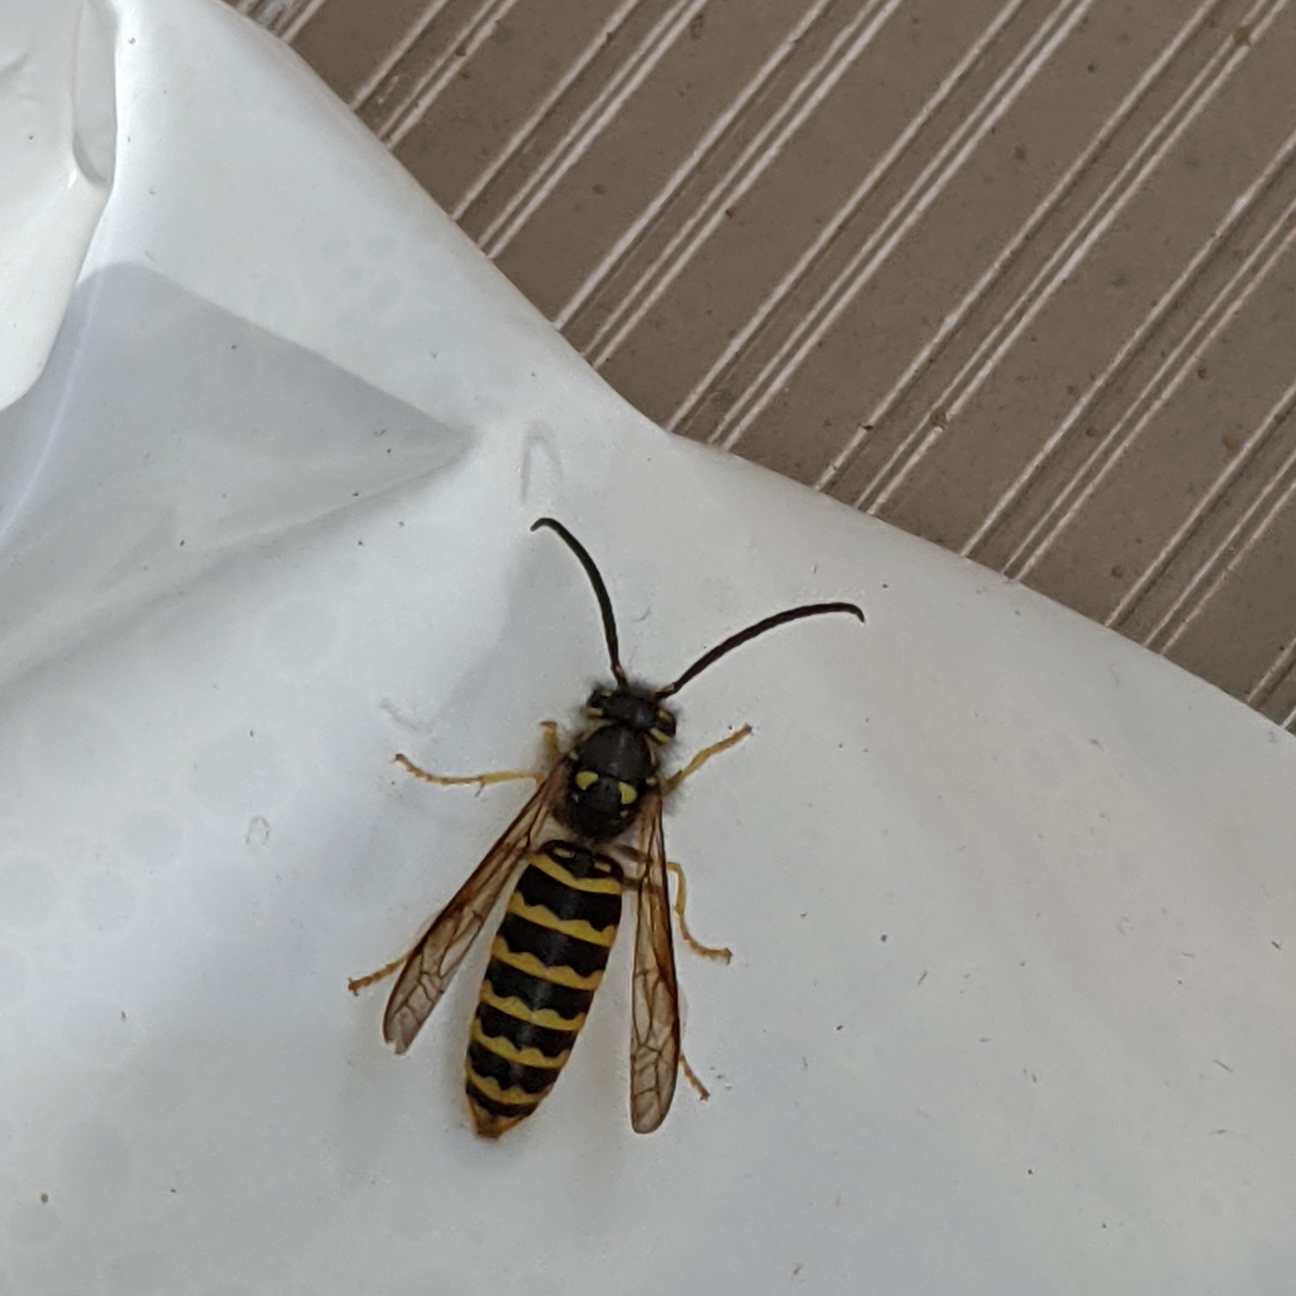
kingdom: Animalia
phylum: Arthropoda
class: Insecta
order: Hymenoptera
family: Vespidae
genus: Vespula
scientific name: Vespula maculifrons
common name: Eastern yellowjacket
